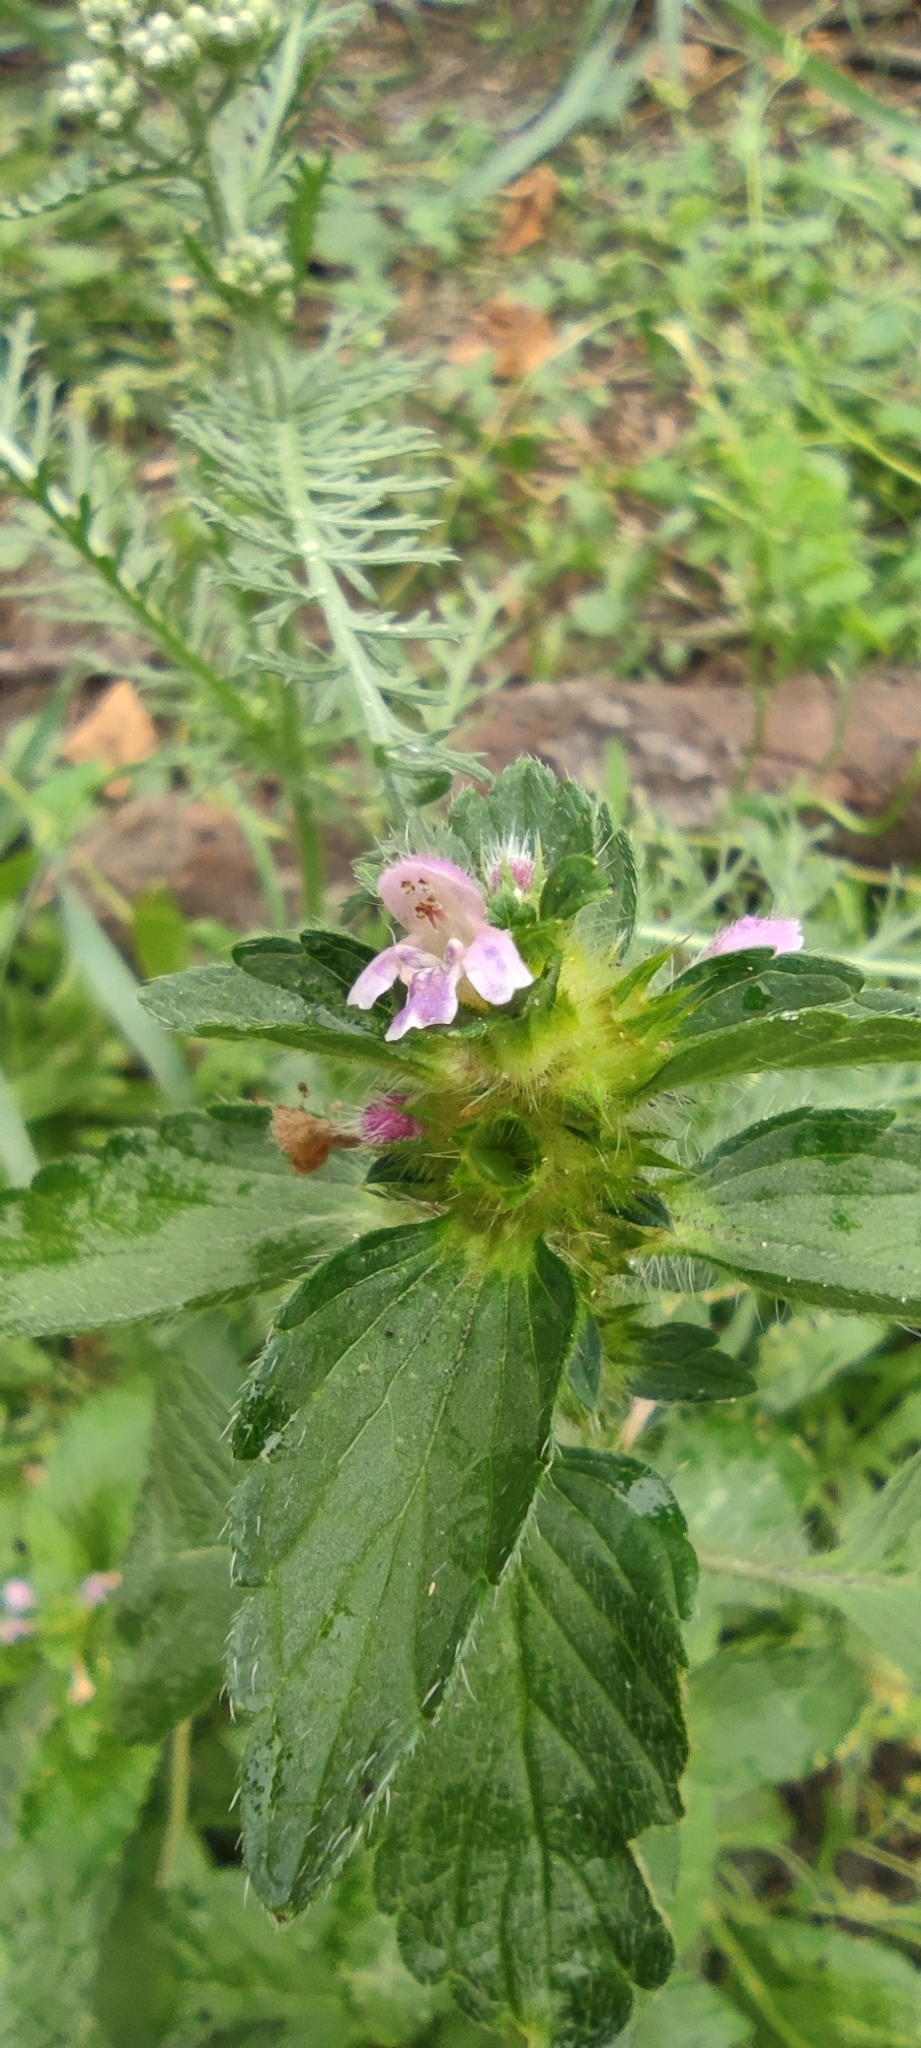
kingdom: Plantae
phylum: Tracheophyta
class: Magnoliopsida
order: Lamiales
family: Lamiaceae
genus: Galeopsis
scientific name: Galeopsis bifida
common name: Bifid hemp-nettle
